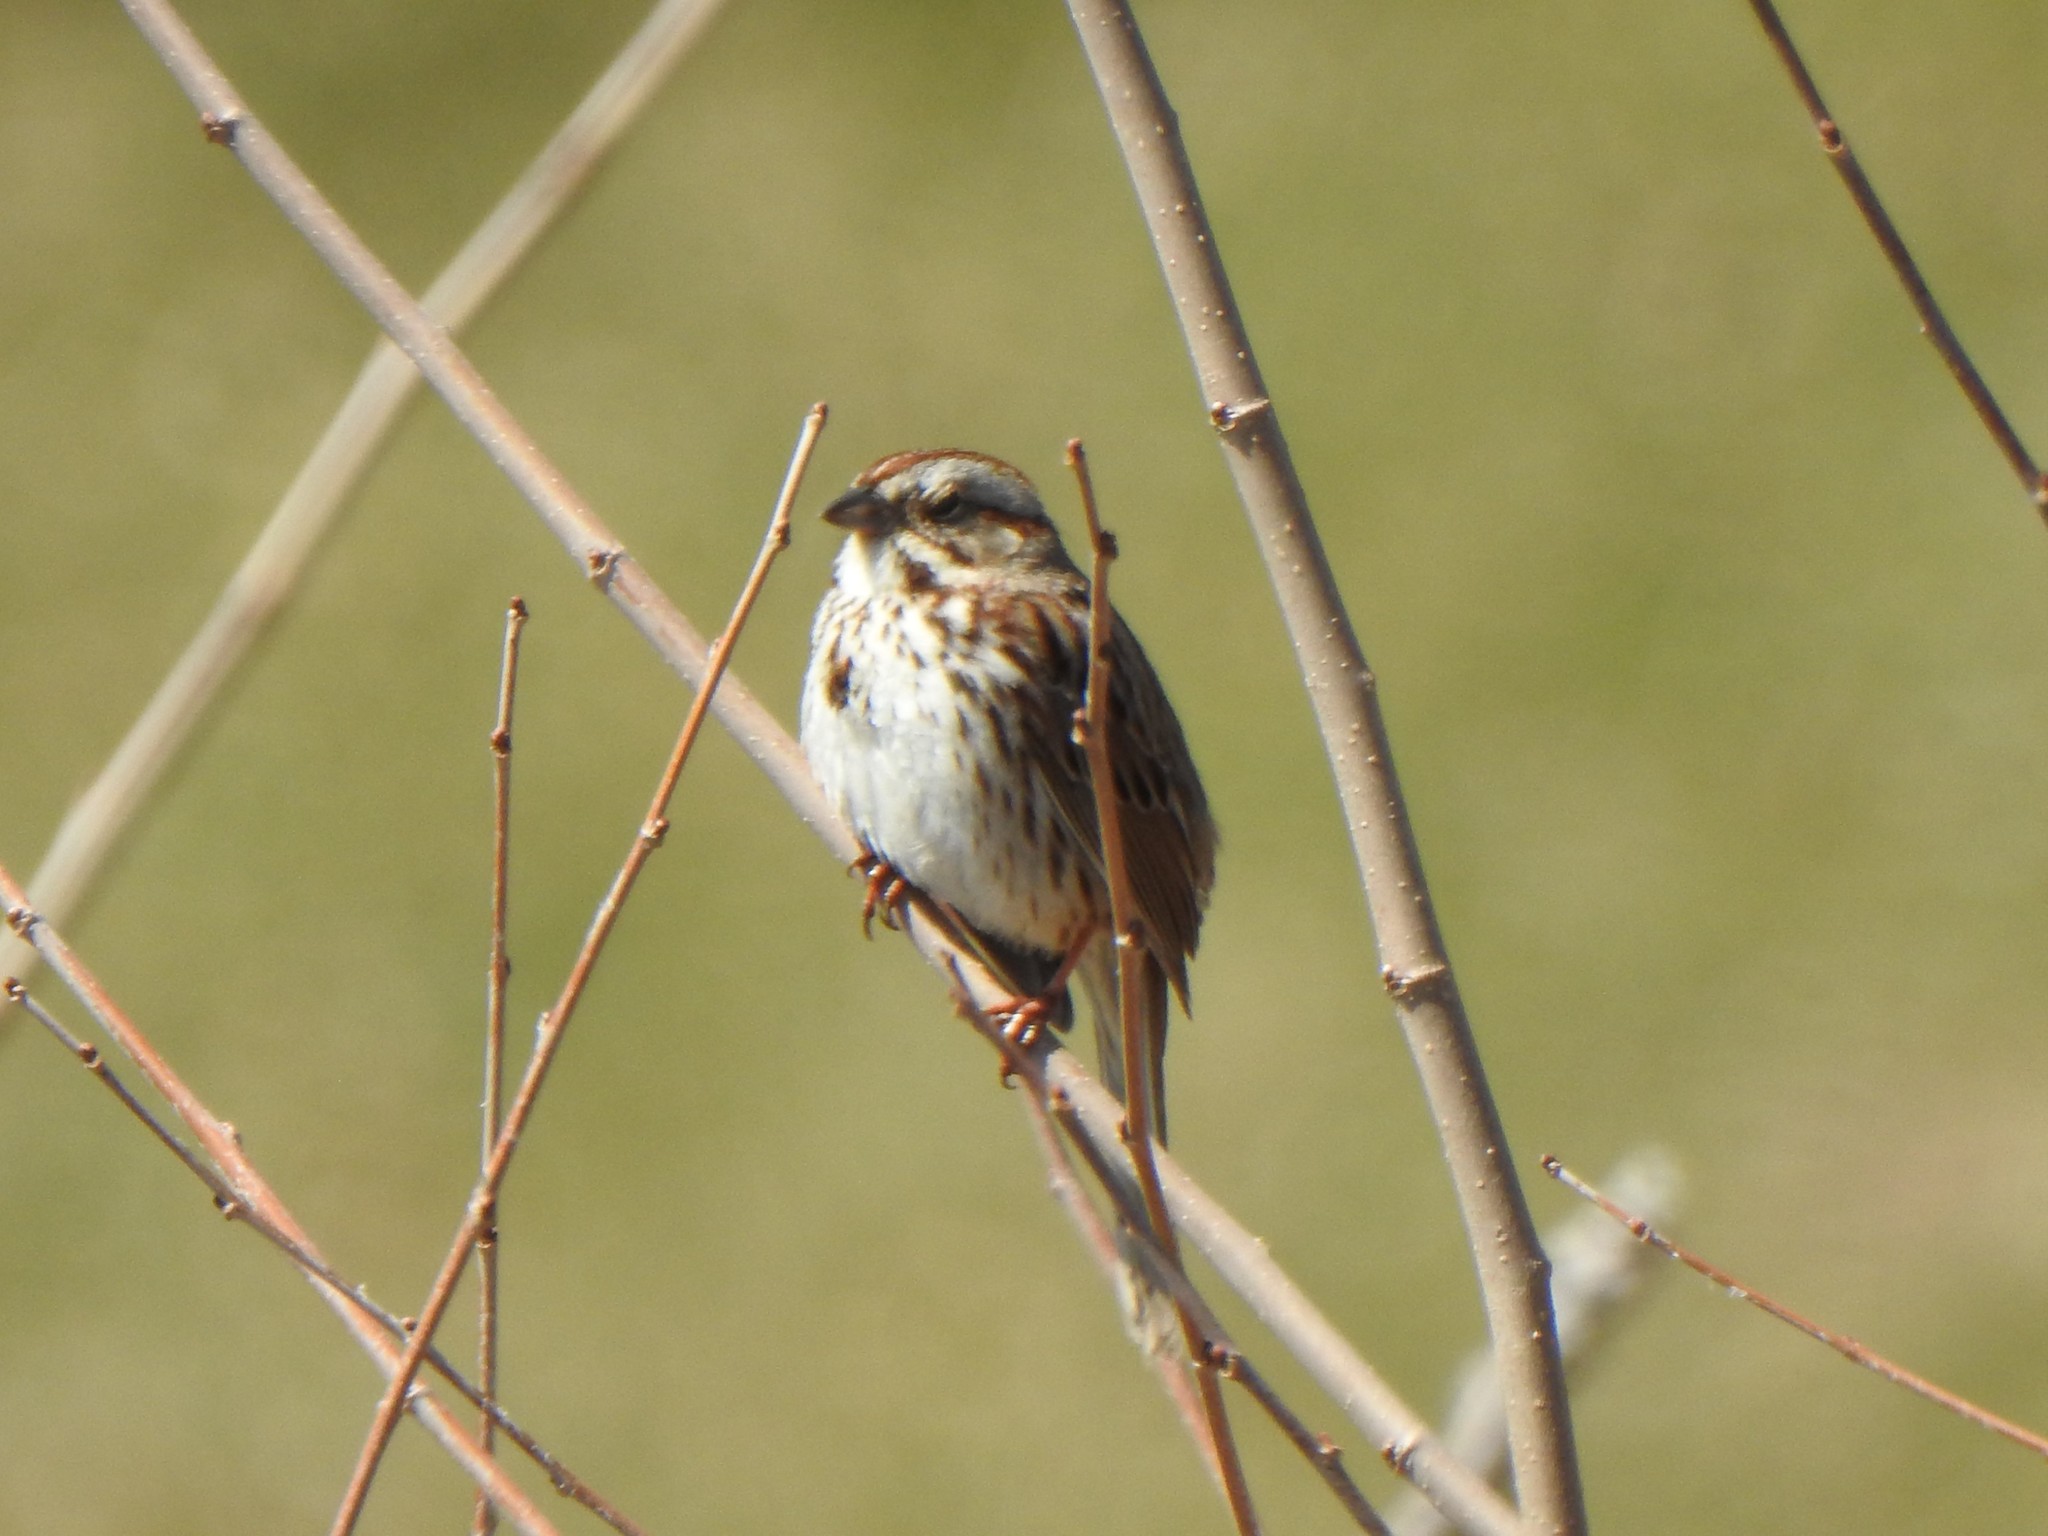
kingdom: Animalia
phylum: Chordata
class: Aves
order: Passeriformes
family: Passerellidae
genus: Melospiza
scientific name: Melospiza melodia
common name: Song sparrow
